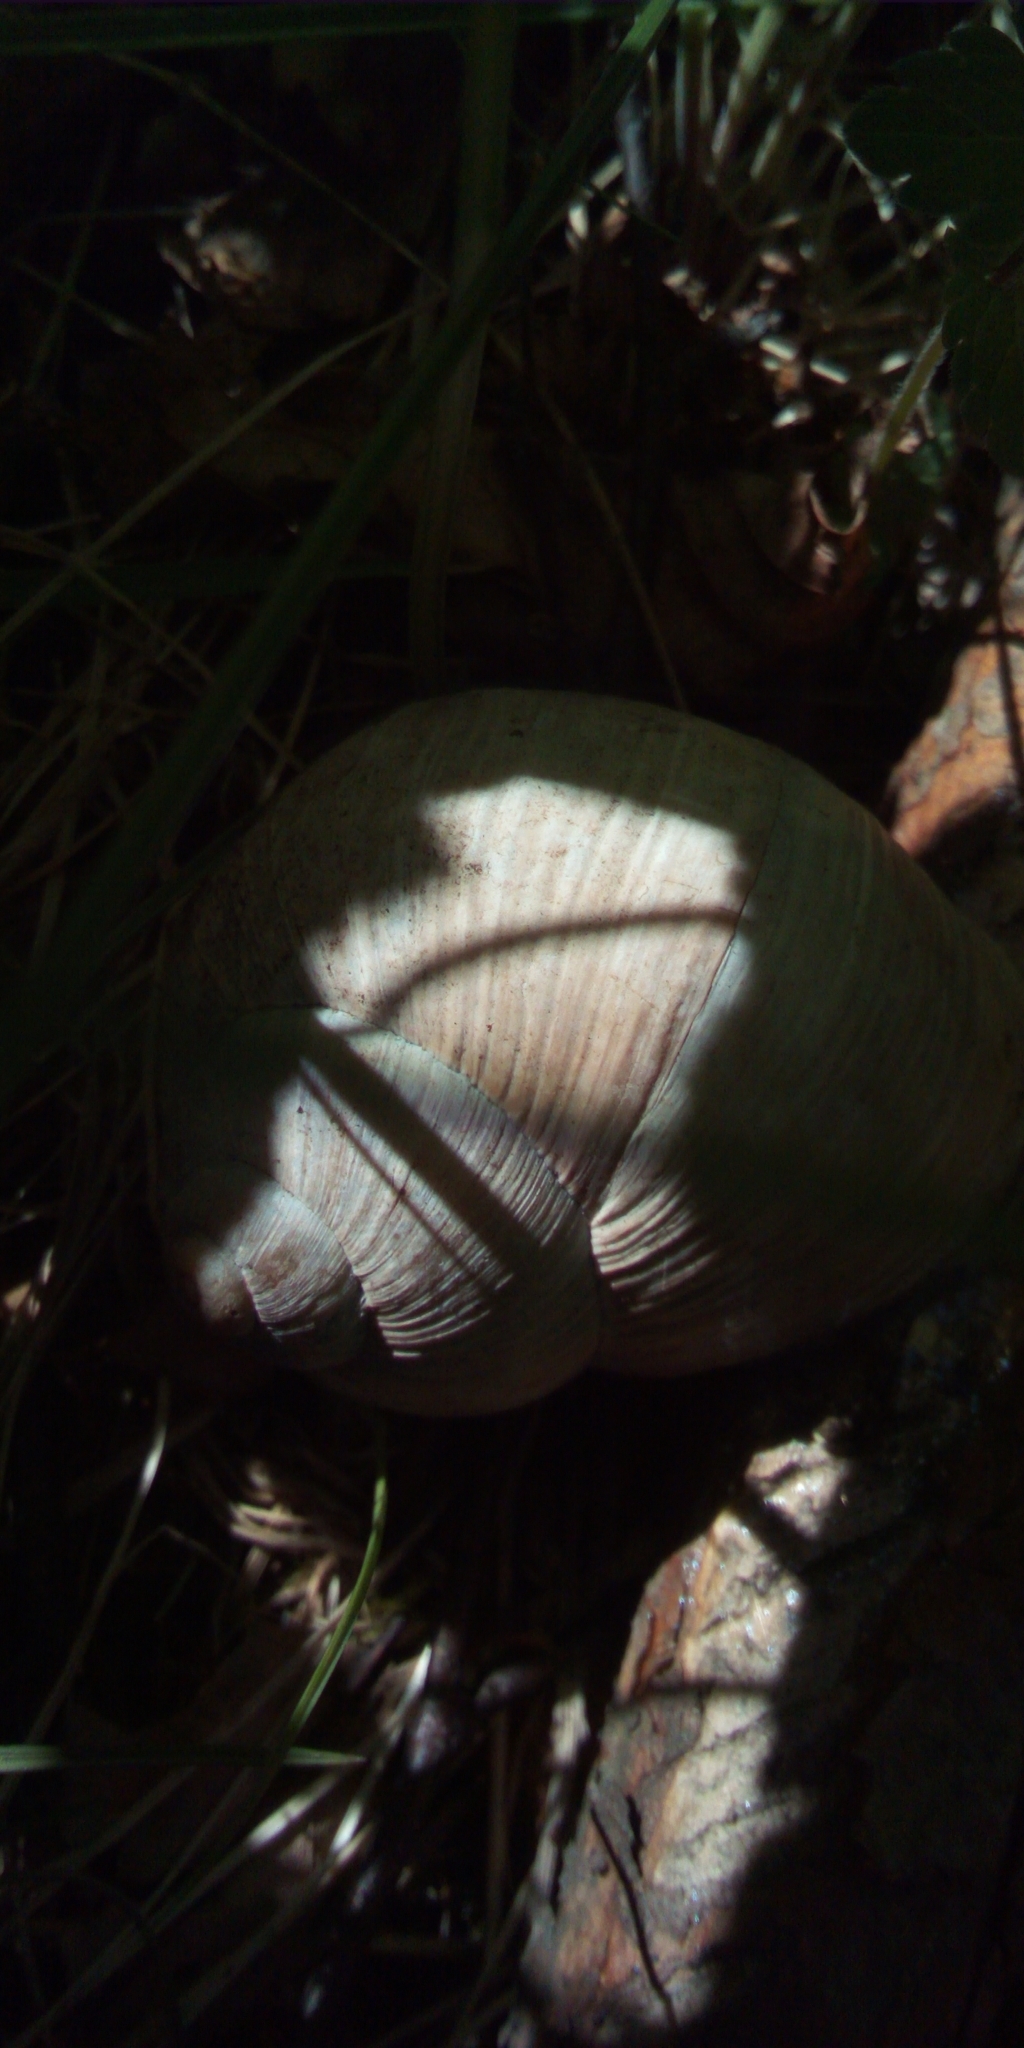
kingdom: Animalia
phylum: Mollusca
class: Gastropoda
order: Stylommatophora
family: Helicidae
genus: Helix
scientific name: Helix pomatia
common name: Roman snail
